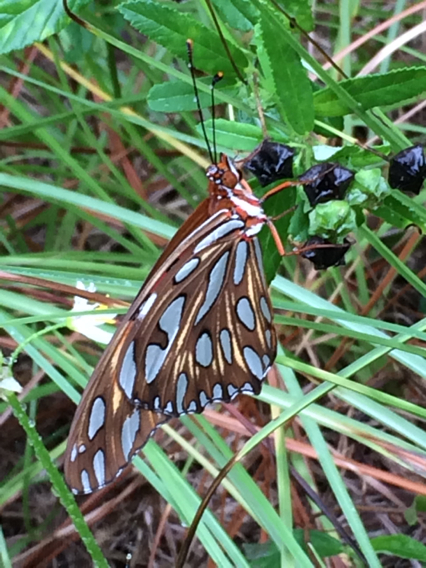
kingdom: Animalia
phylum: Arthropoda
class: Insecta
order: Lepidoptera
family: Nymphalidae
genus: Dione
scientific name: Dione vanillae
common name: Gulf fritillary
